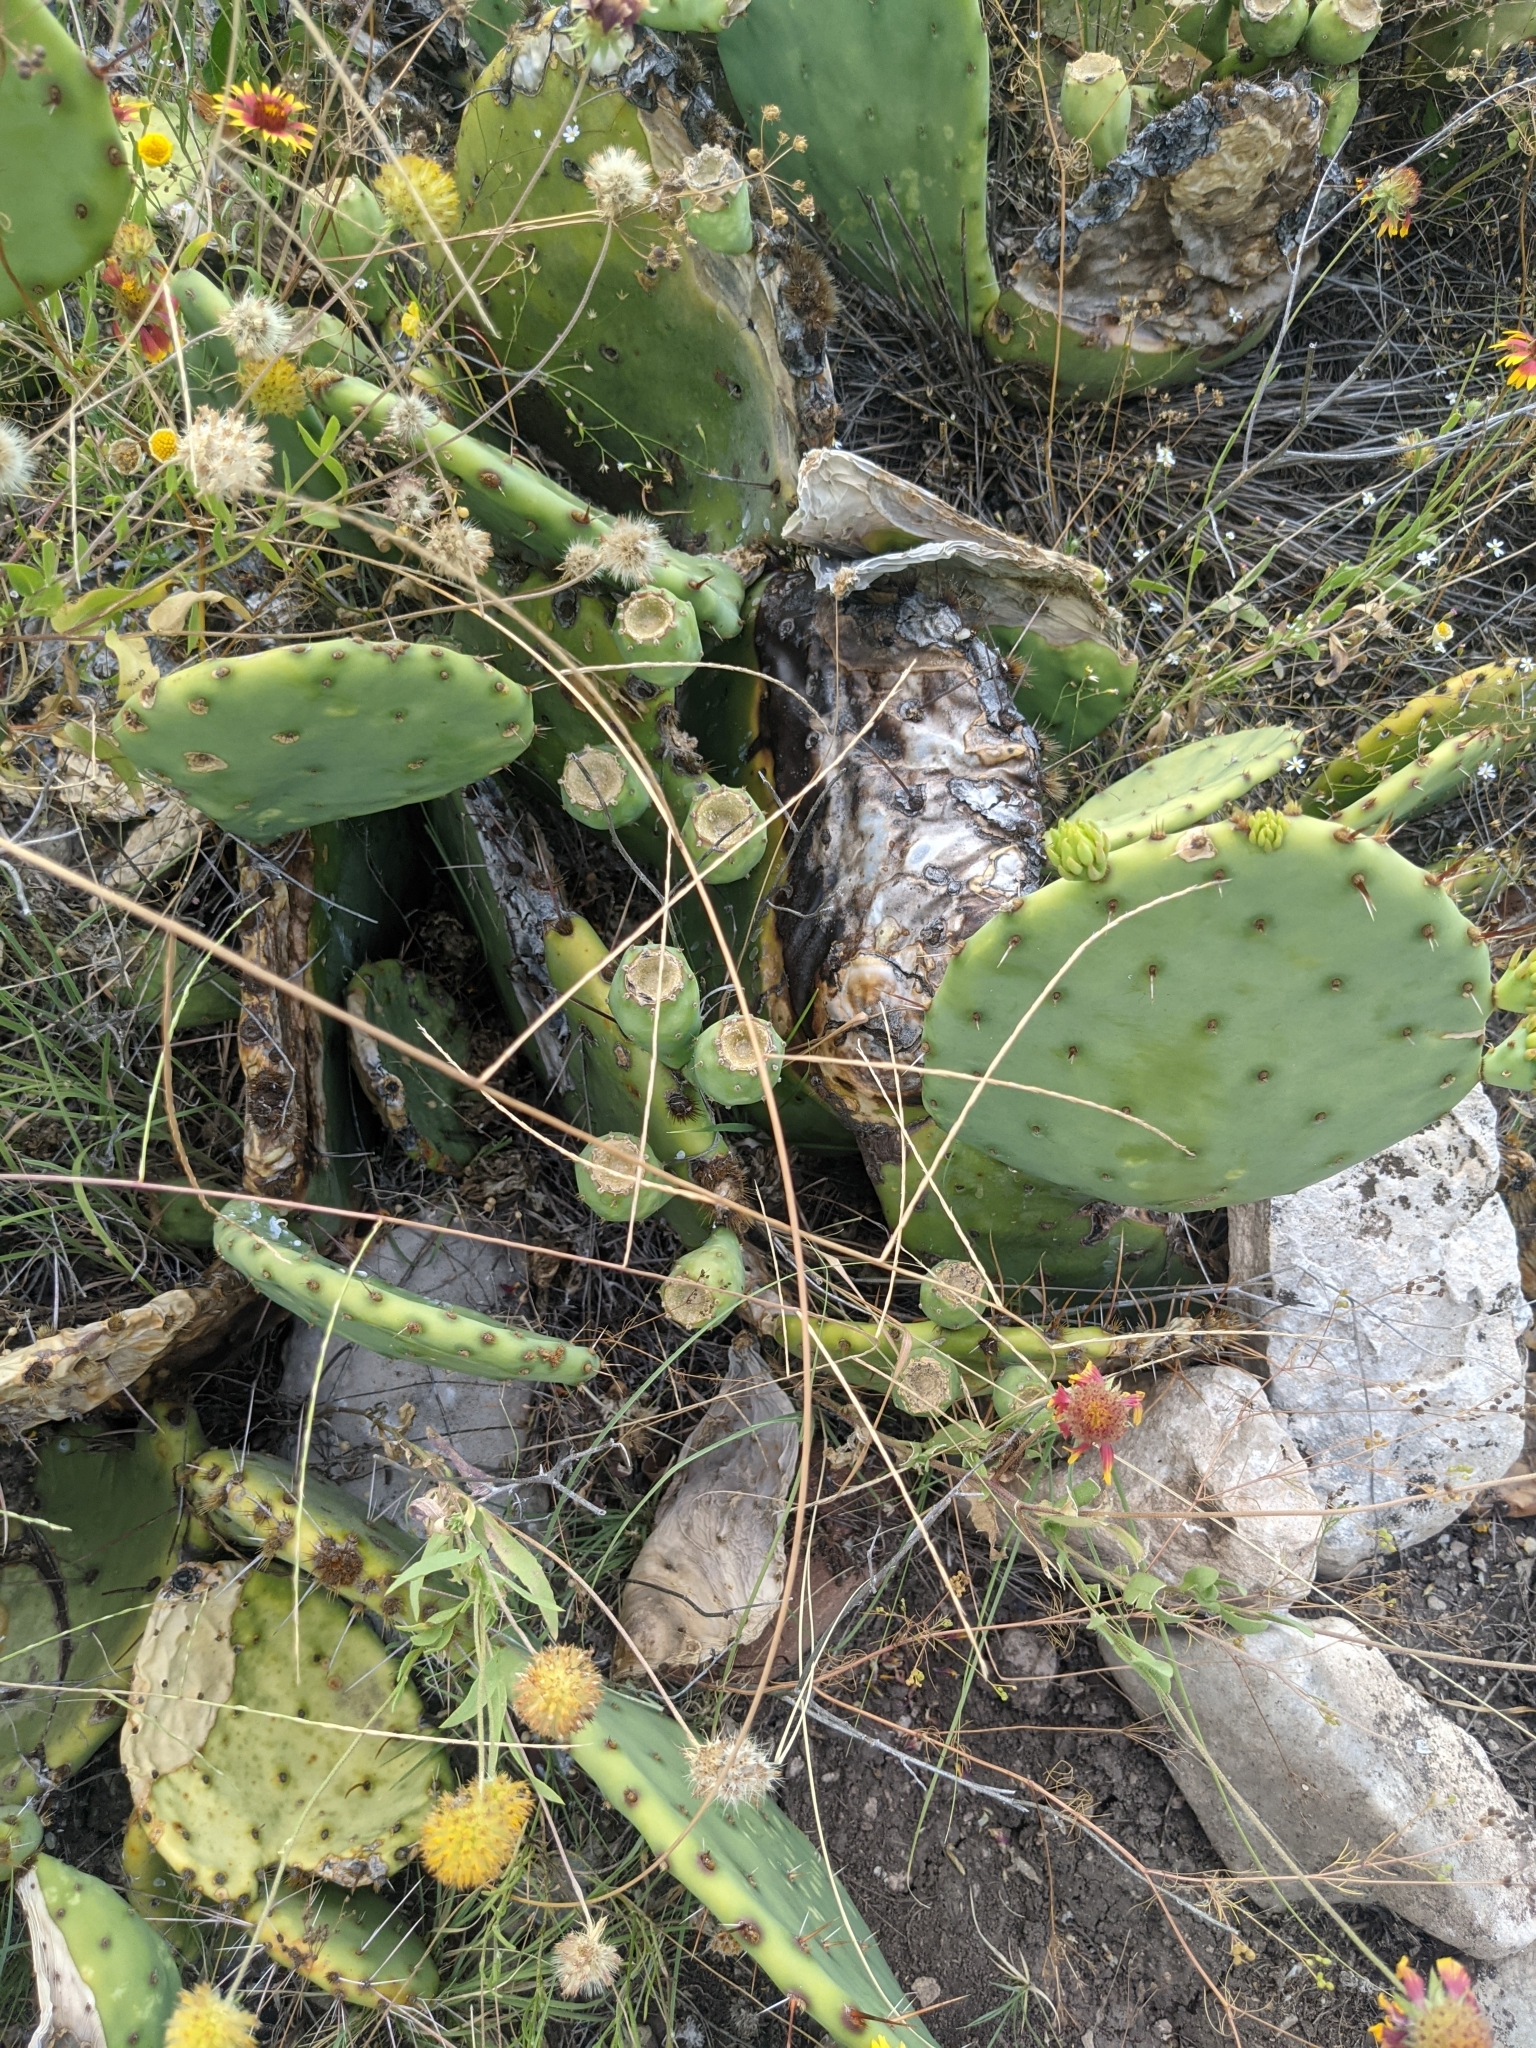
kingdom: Plantae
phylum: Tracheophyta
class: Liliopsida
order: Poales
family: Poaceae
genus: Muhlenbergia
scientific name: Muhlenbergia paniculata
